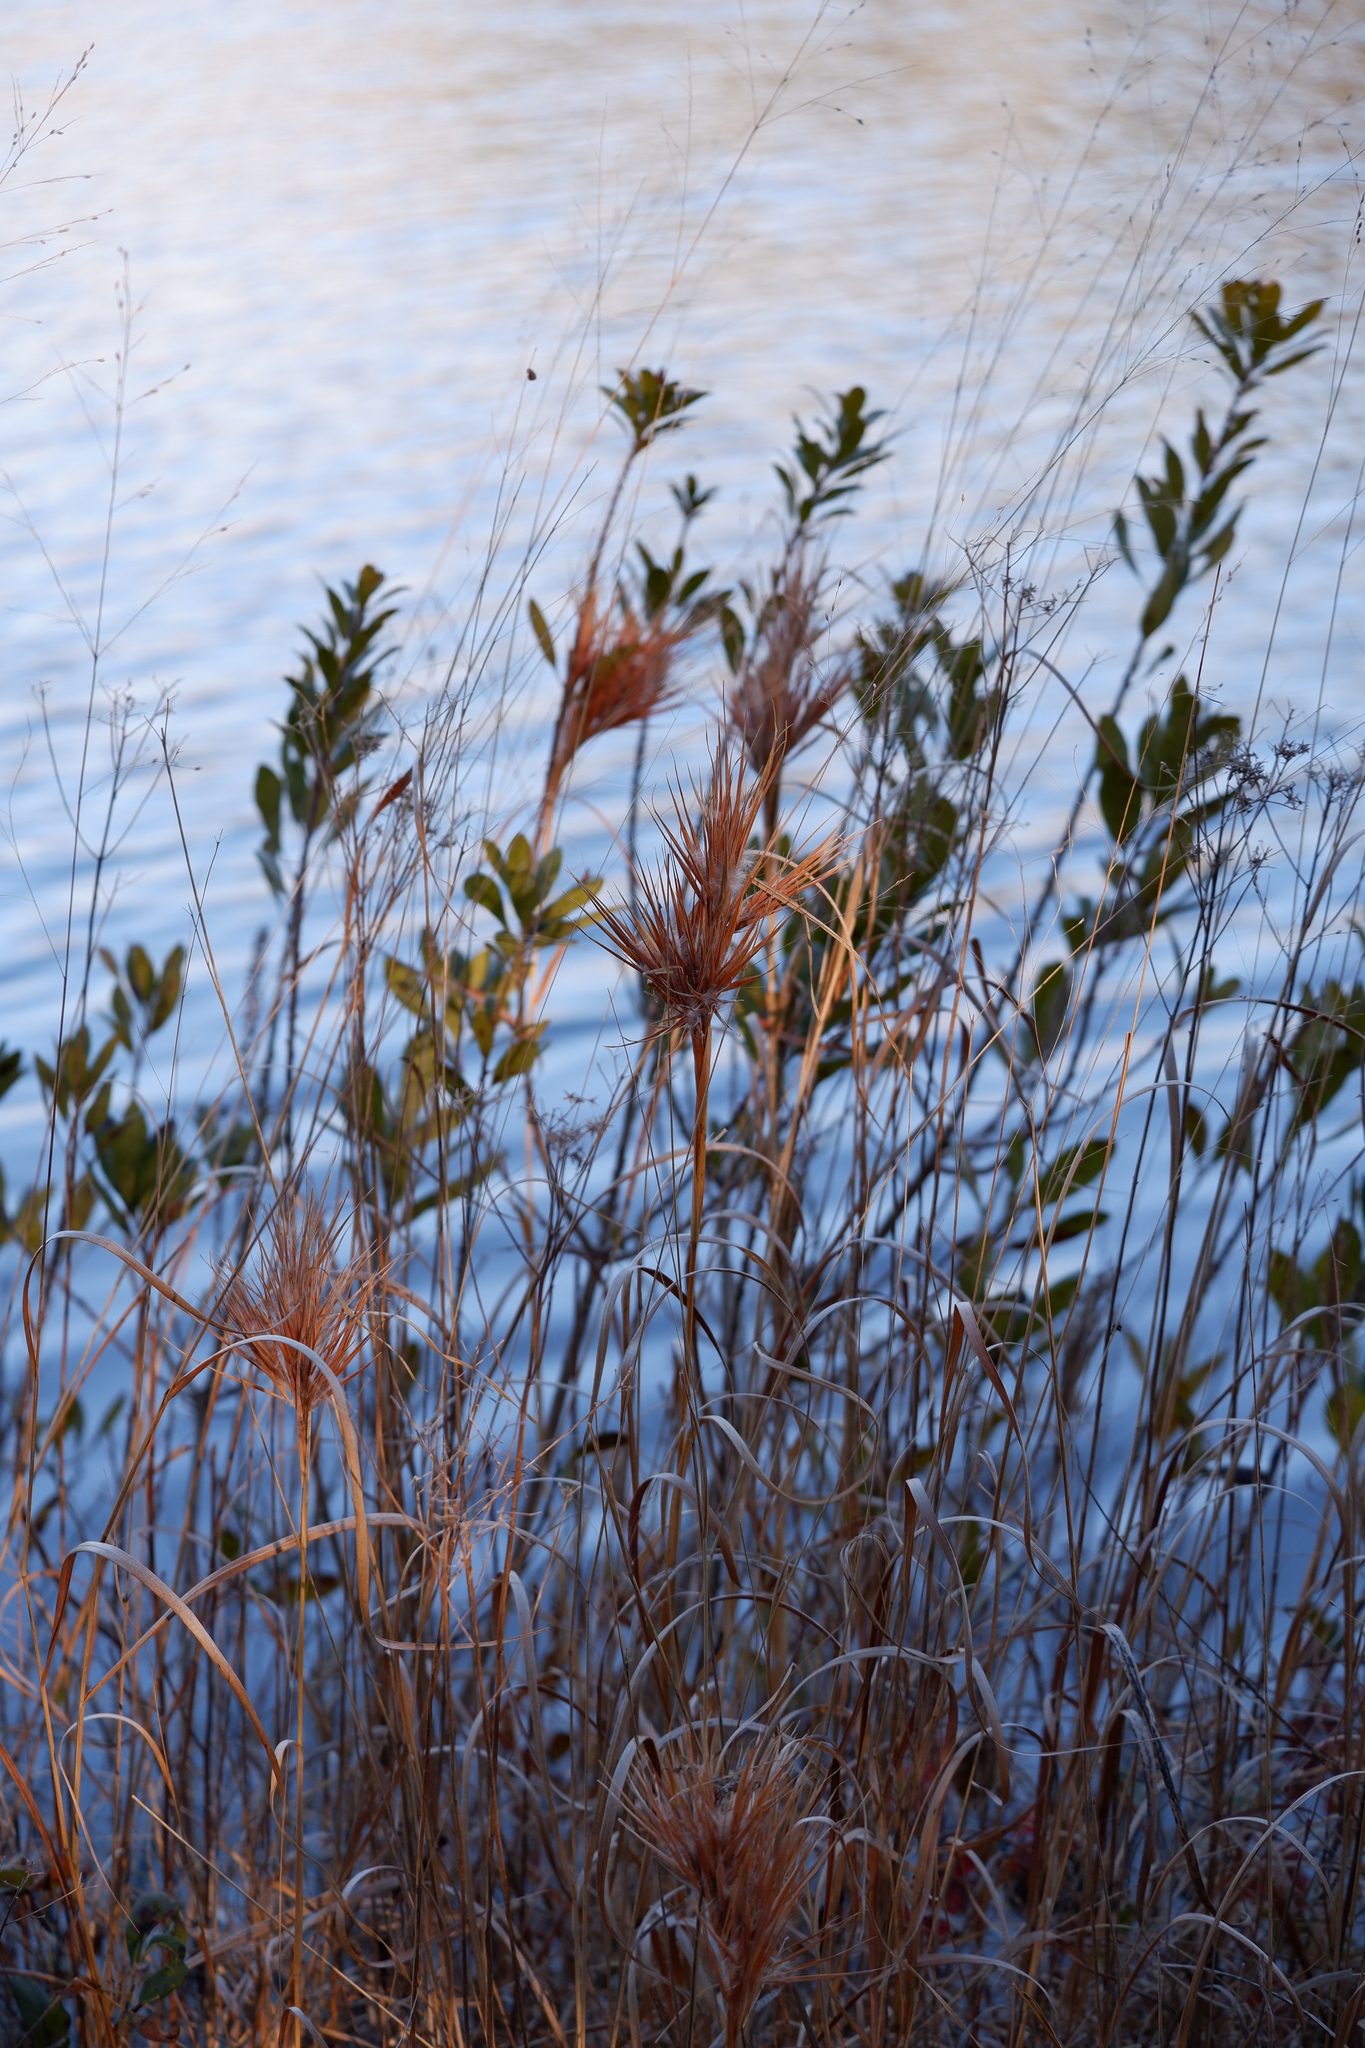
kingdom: Plantae
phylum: Tracheophyta
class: Liliopsida
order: Poales
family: Poaceae
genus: Andropogon
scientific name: Andropogon glomeratus
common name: Bushy beard grass
